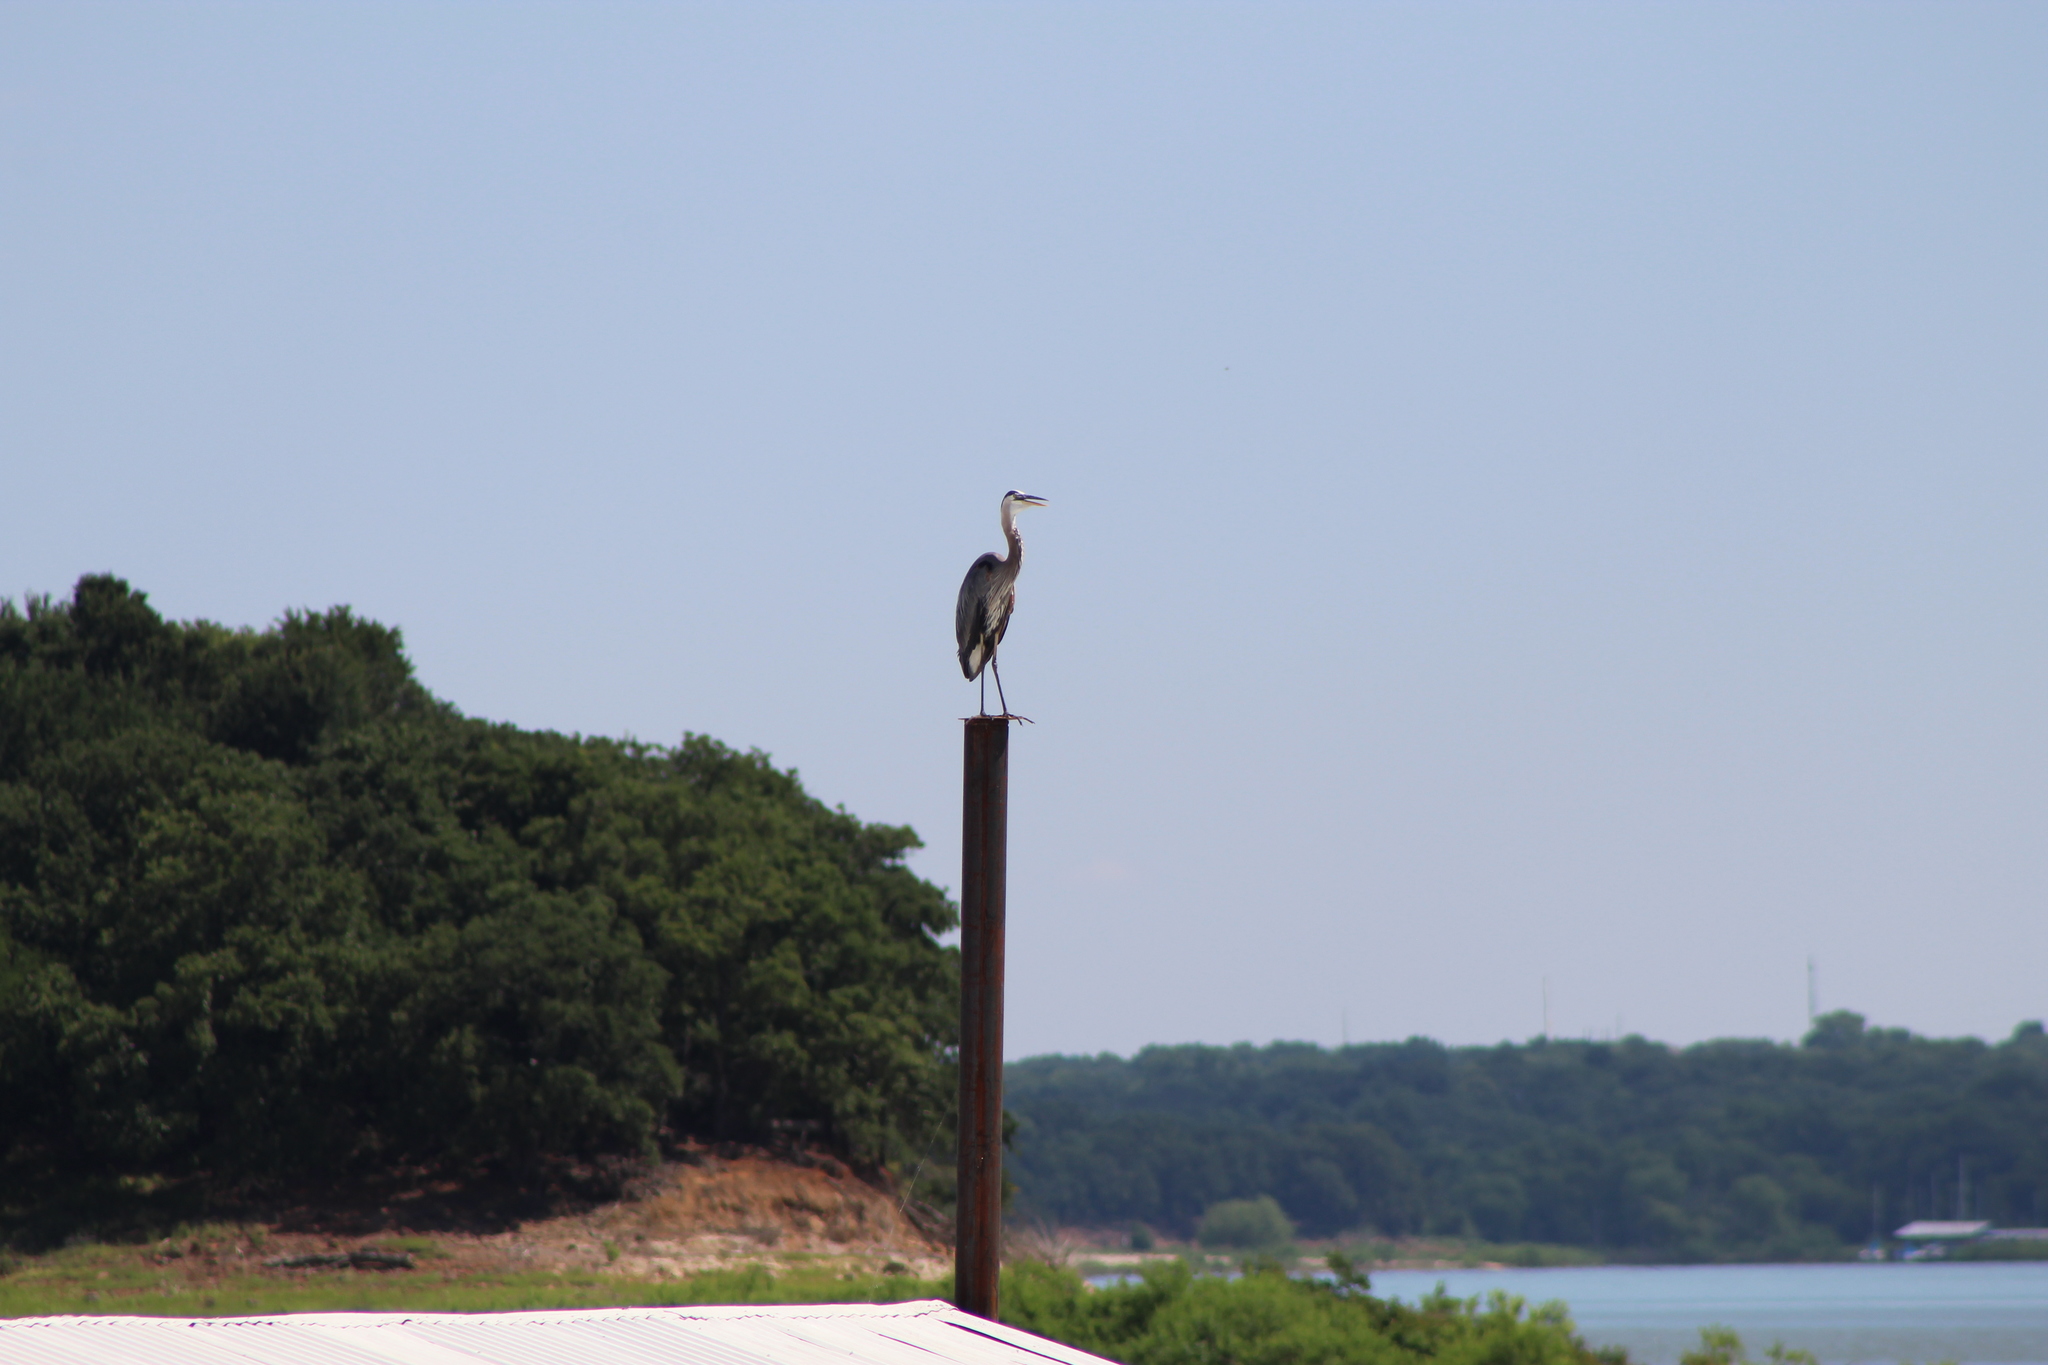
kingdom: Animalia
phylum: Chordata
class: Aves
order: Pelecaniformes
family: Ardeidae
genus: Ardea
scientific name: Ardea herodias
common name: Great blue heron
